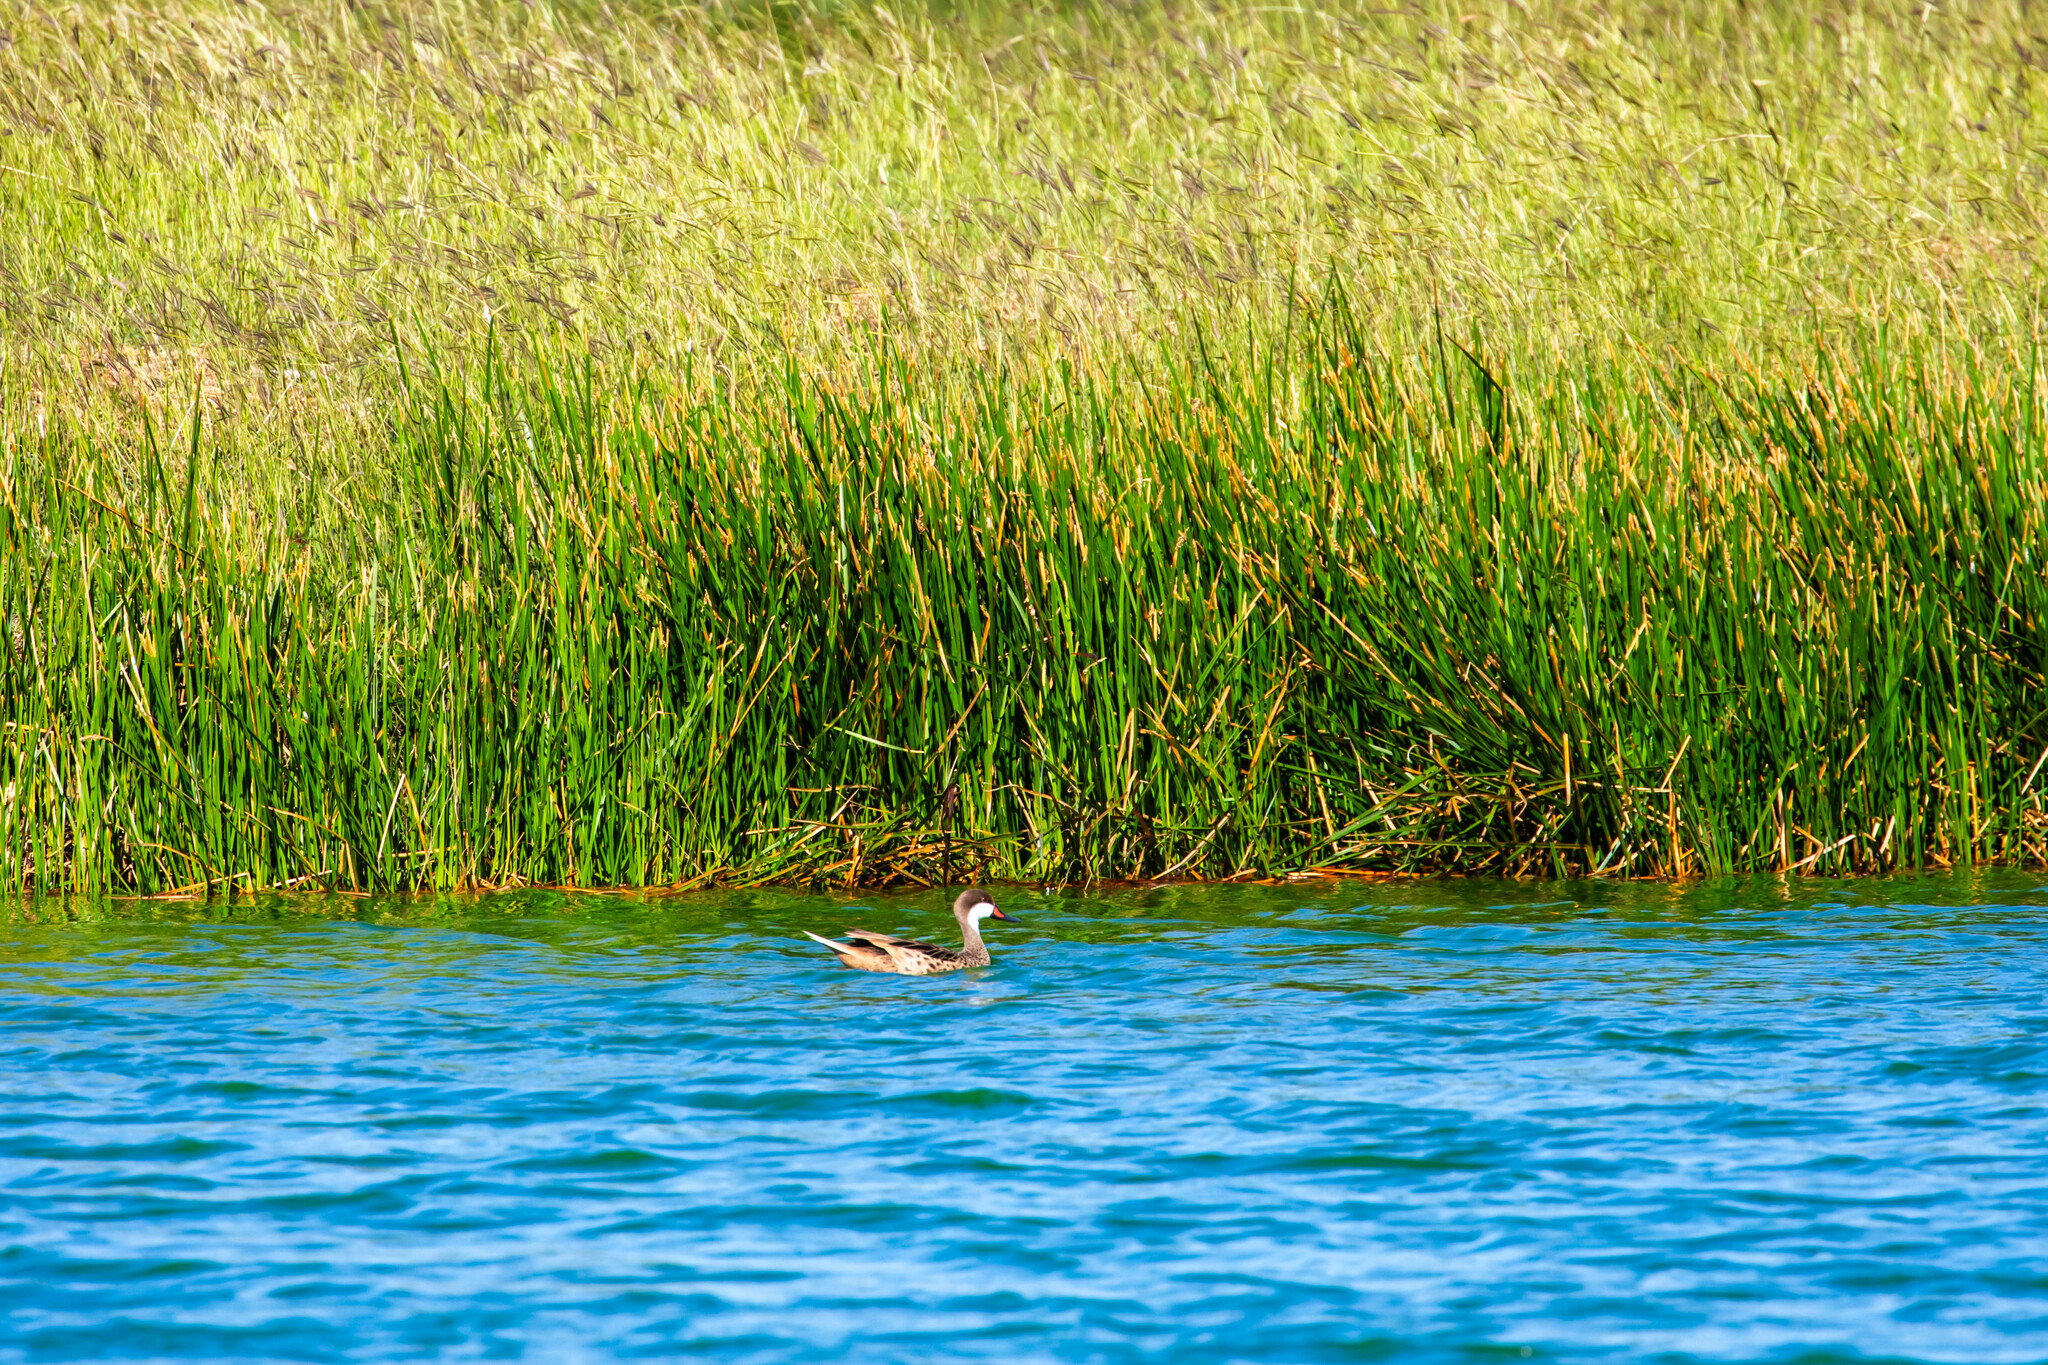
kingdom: Animalia
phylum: Chordata
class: Aves
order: Anseriformes
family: Anatidae
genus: Anas
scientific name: Anas bahamensis
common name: White-cheeked pintail
